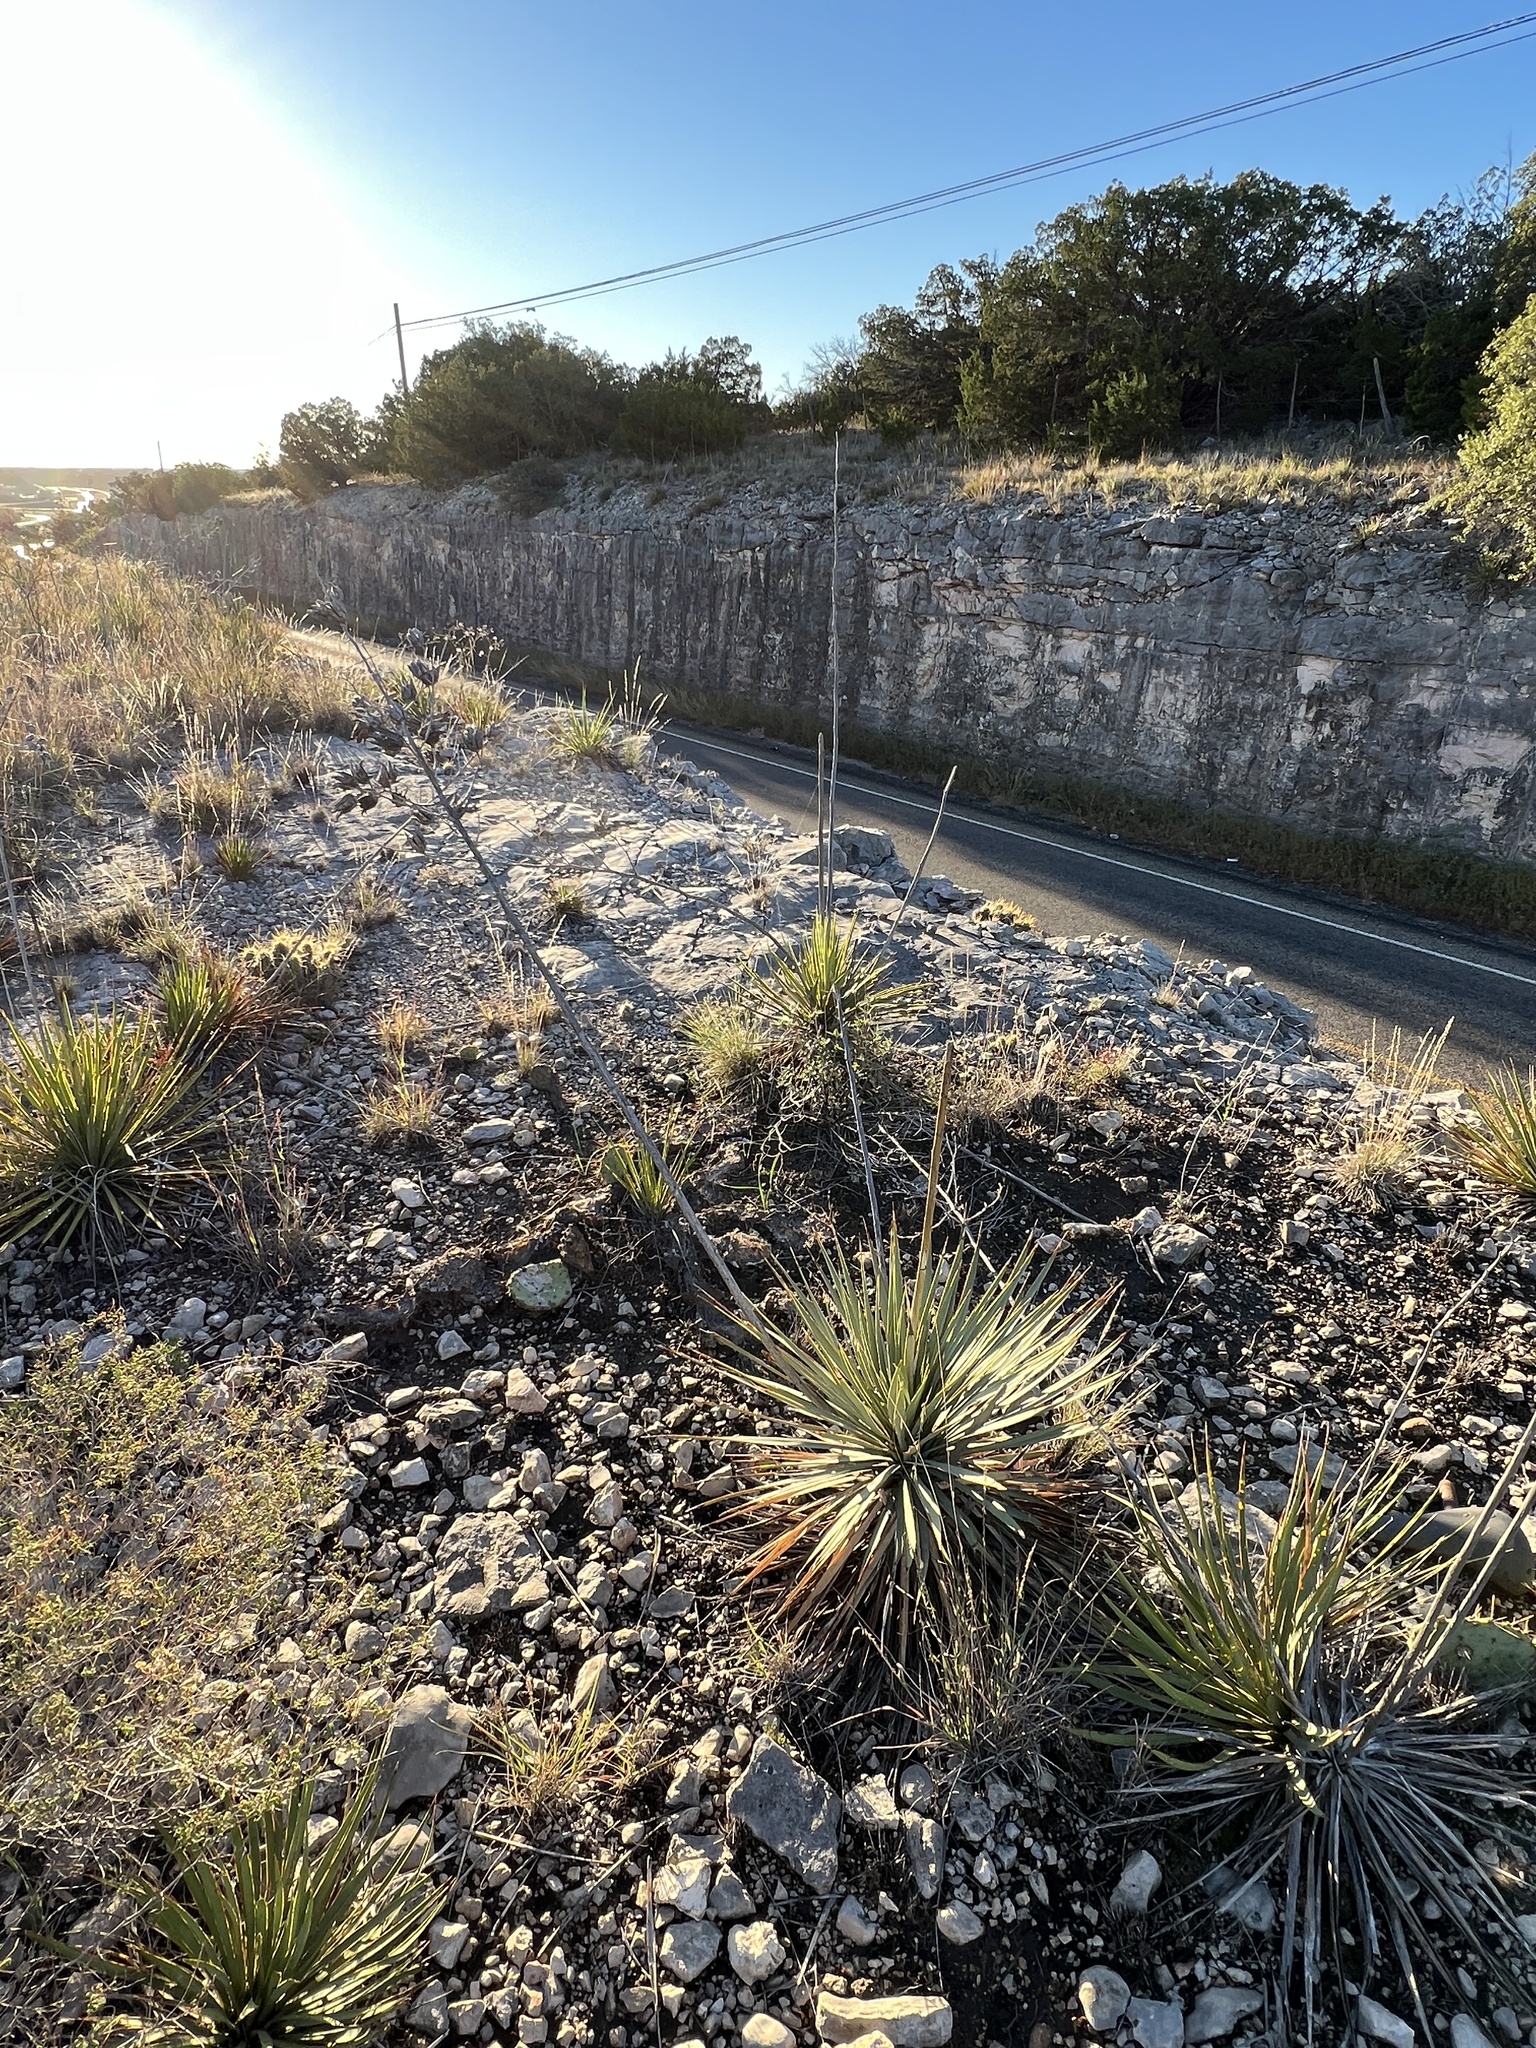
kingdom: Plantae
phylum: Tracheophyta
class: Liliopsida
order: Asparagales
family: Asparagaceae
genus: Yucca
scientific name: Yucca reverchonii
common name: San angelo yucca
